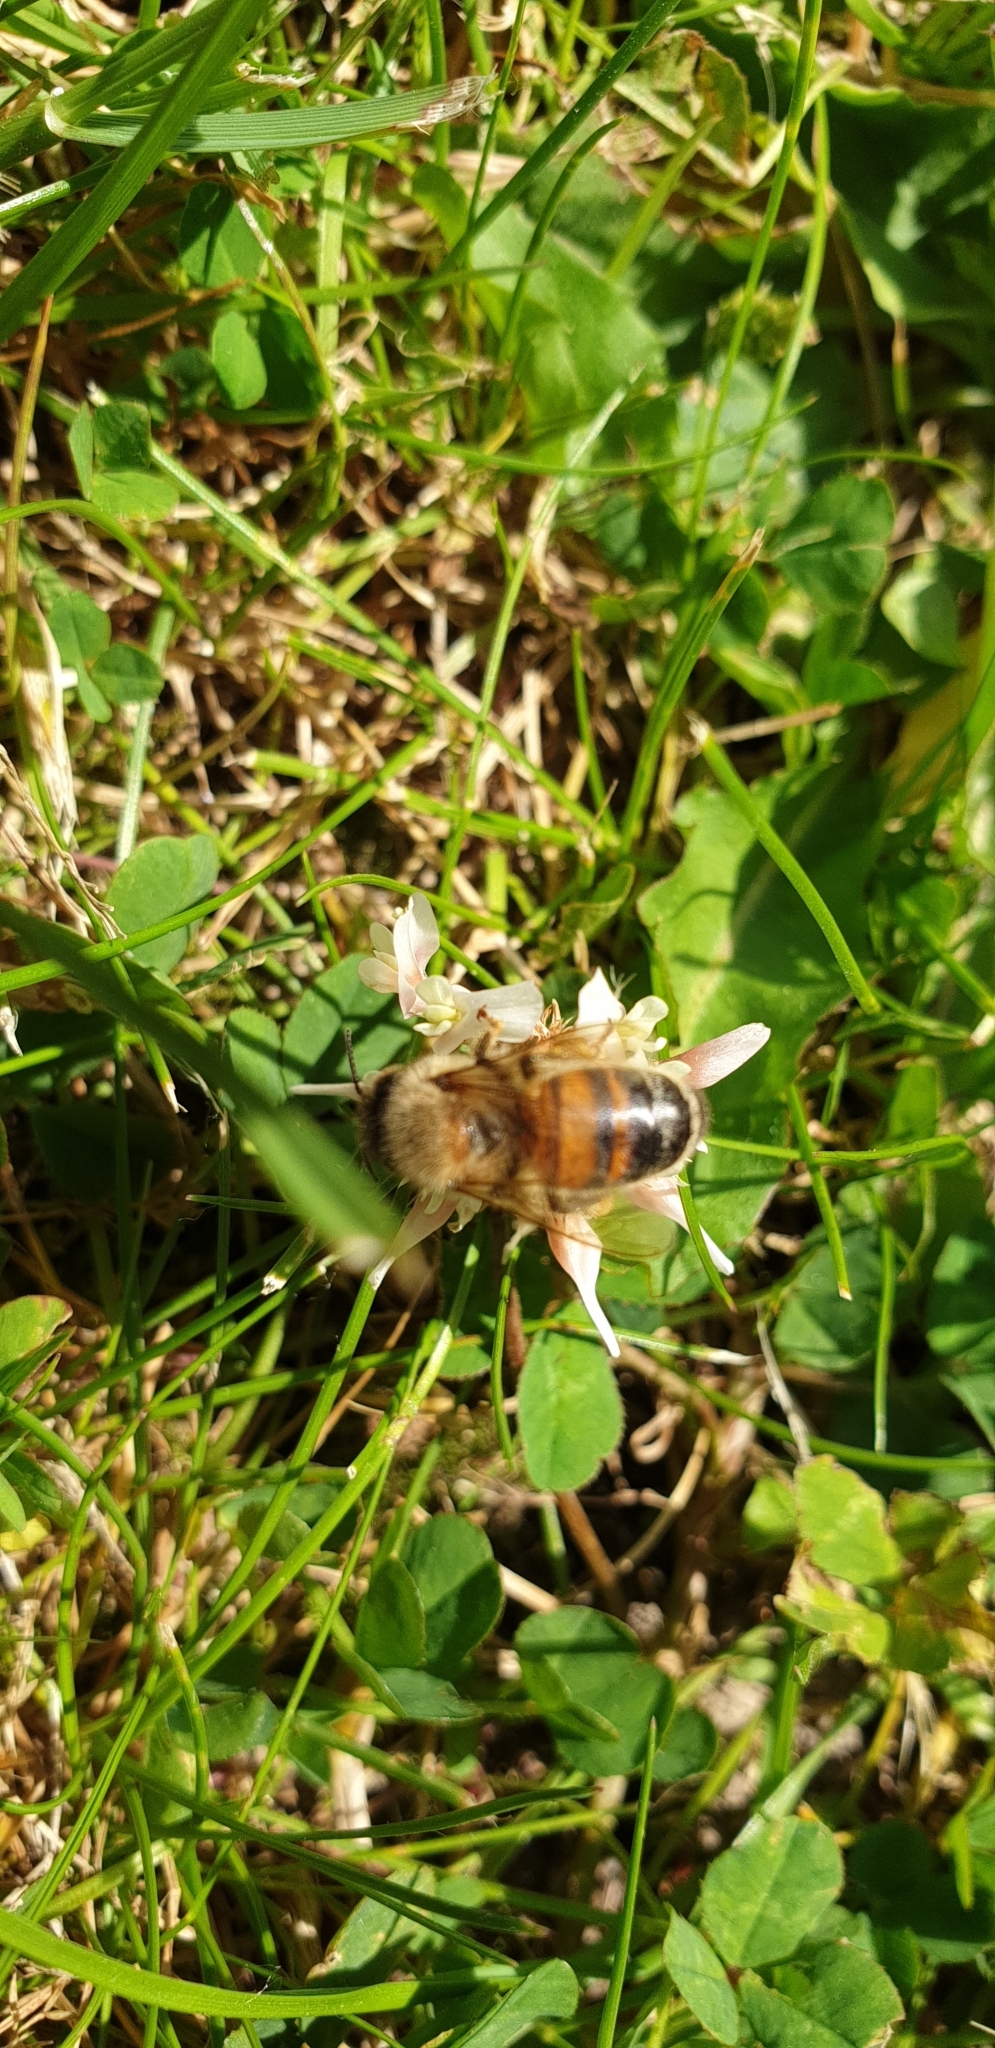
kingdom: Animalia
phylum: Arthropoda
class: Insecta
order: Hymenoptera
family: Apidae
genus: Apis
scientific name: Apis mellifera
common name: Honey bee
